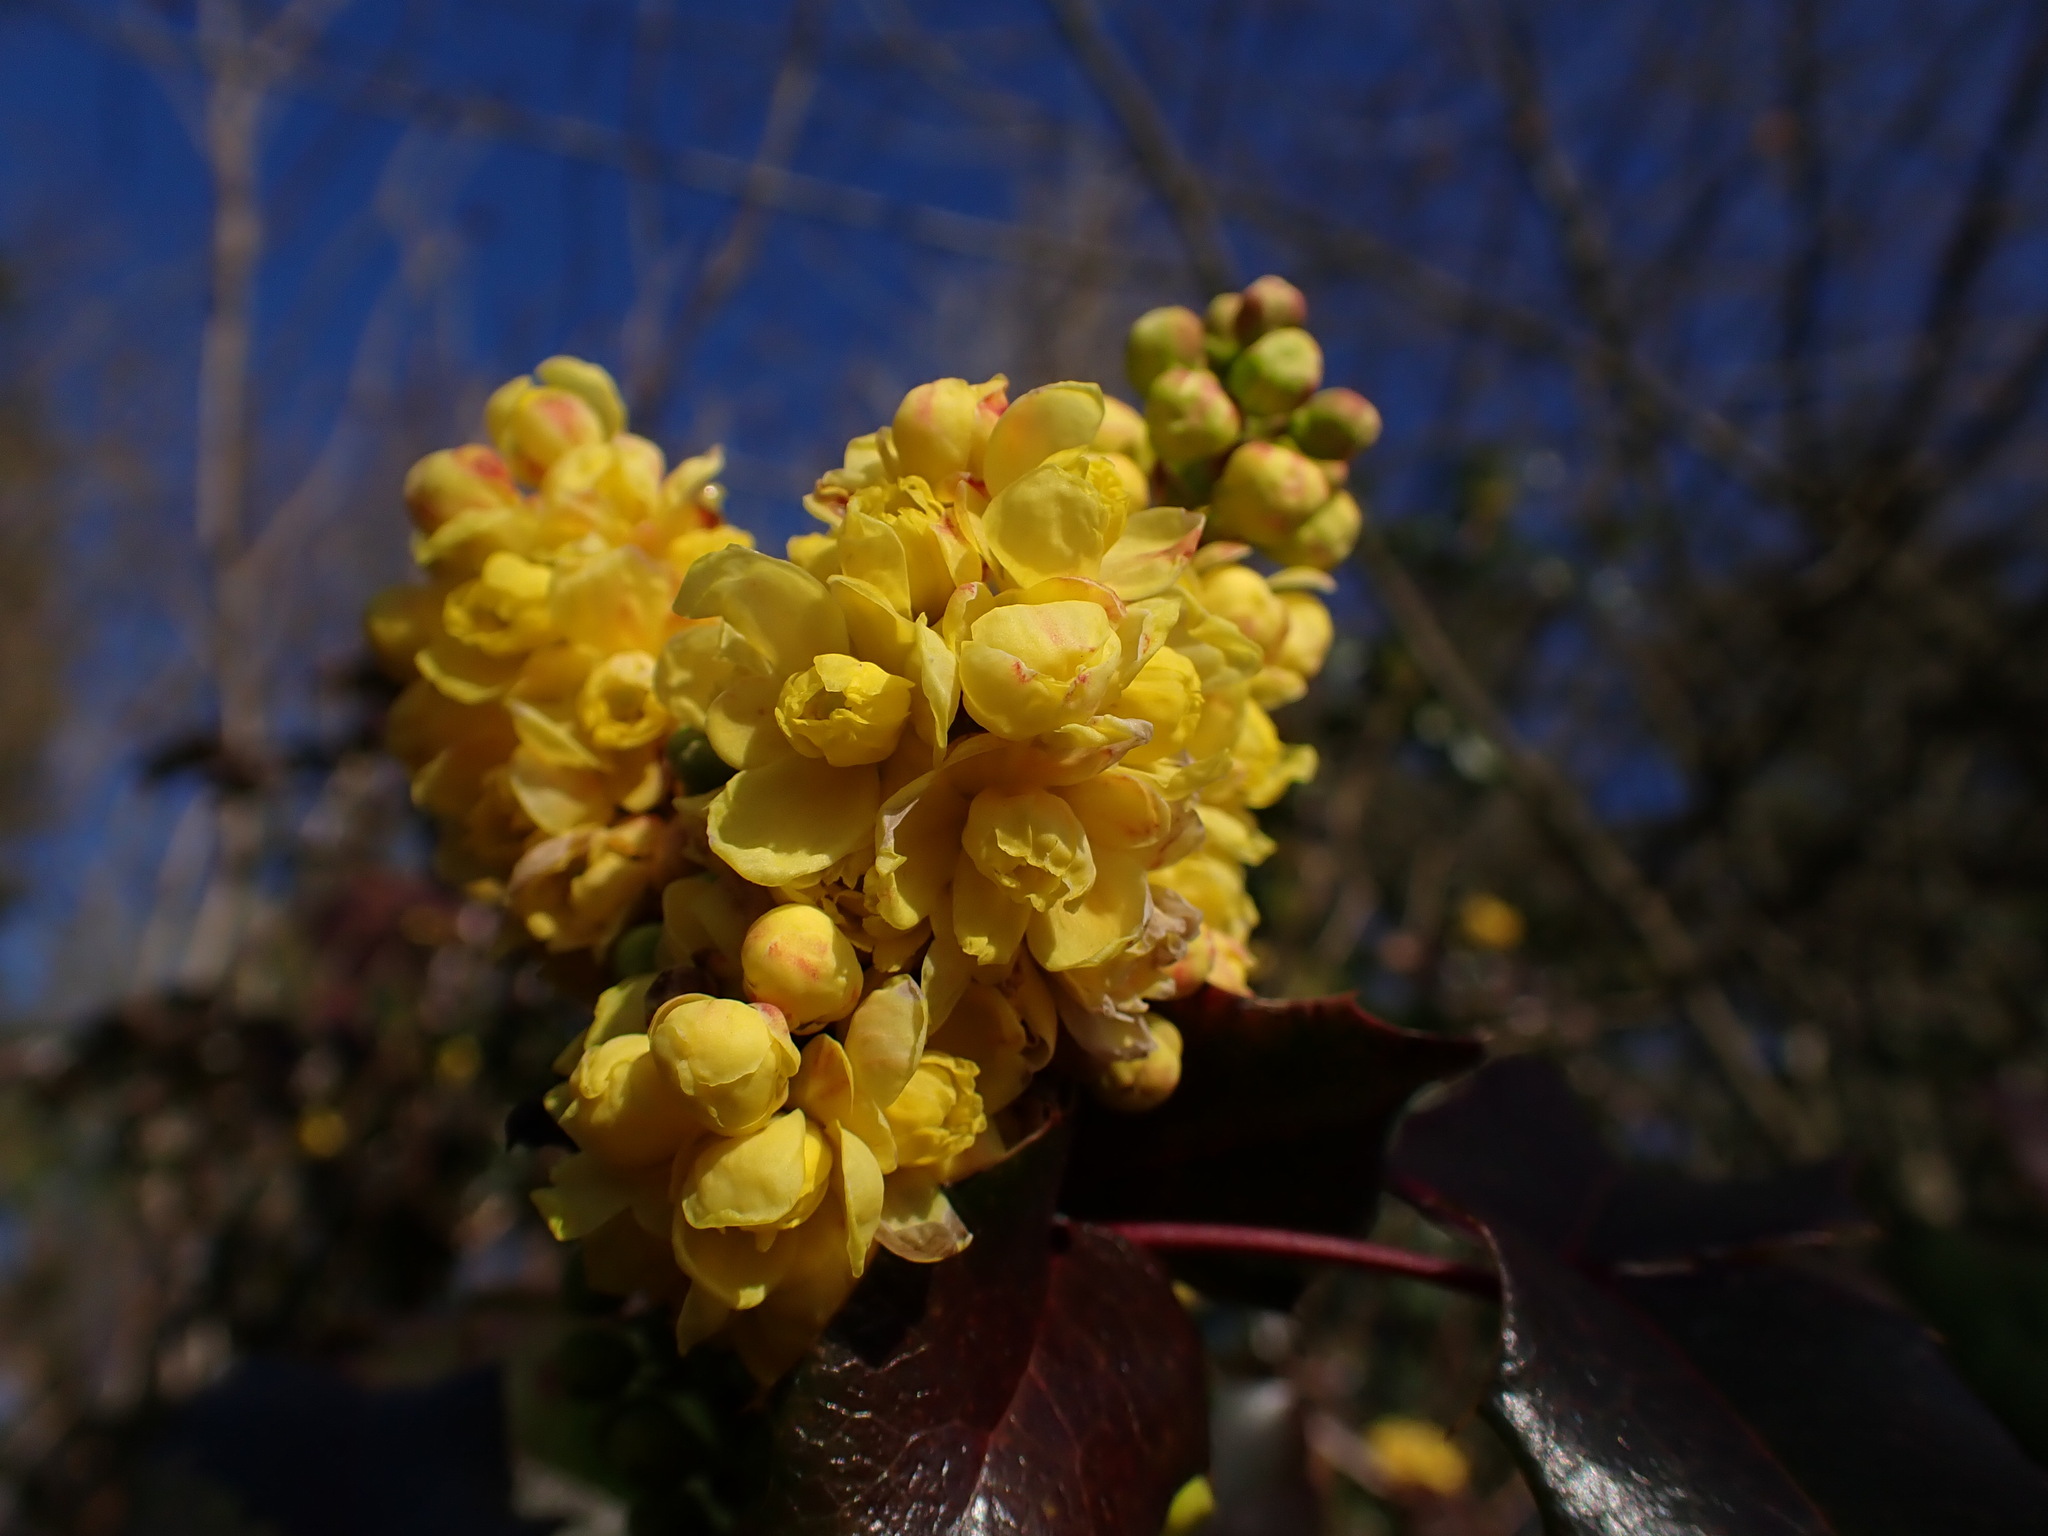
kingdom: Plantae
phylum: Tracheophyta
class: Magnoliopsida
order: Ranunculales
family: Berberidaceae
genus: Mahonia
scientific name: Mahonia aquifolium
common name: Oregon-grape
